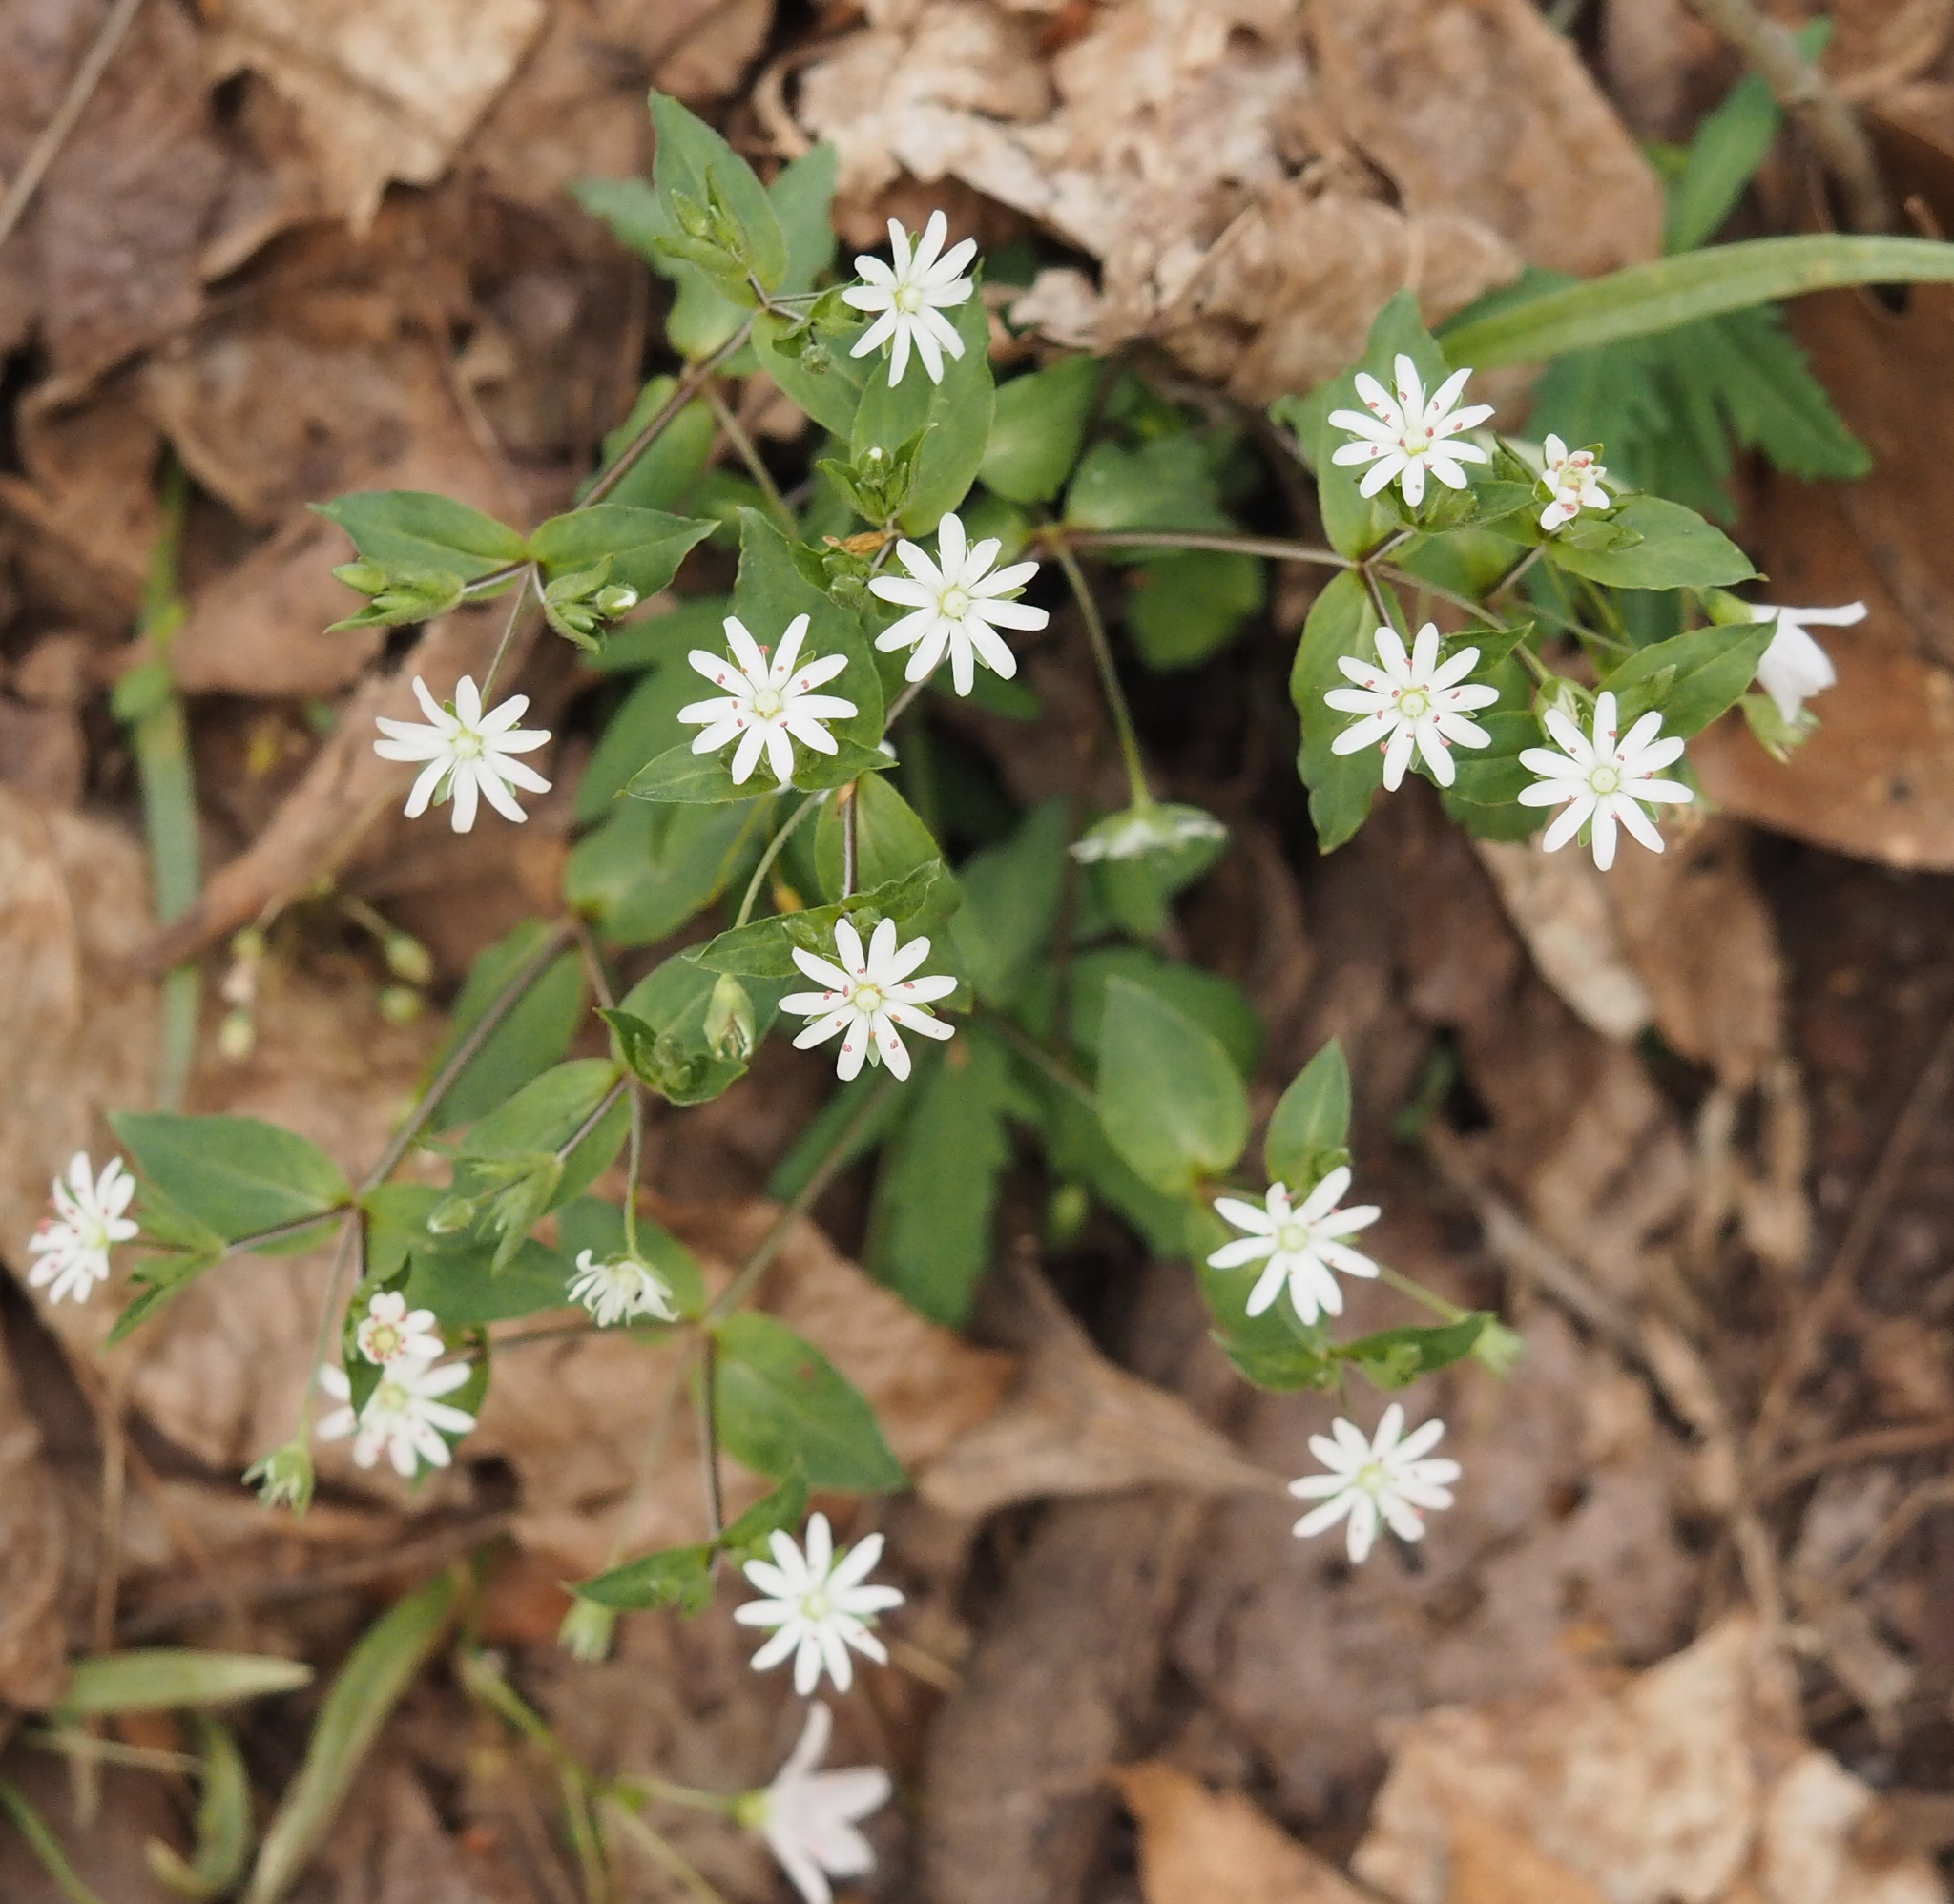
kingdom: Plantae
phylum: Tracheophyta
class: Magnoliopsida
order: Caryophyllales
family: Caryophyllaceae
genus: Stellaria
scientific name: Stellaria pubera
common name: Star chickweed
